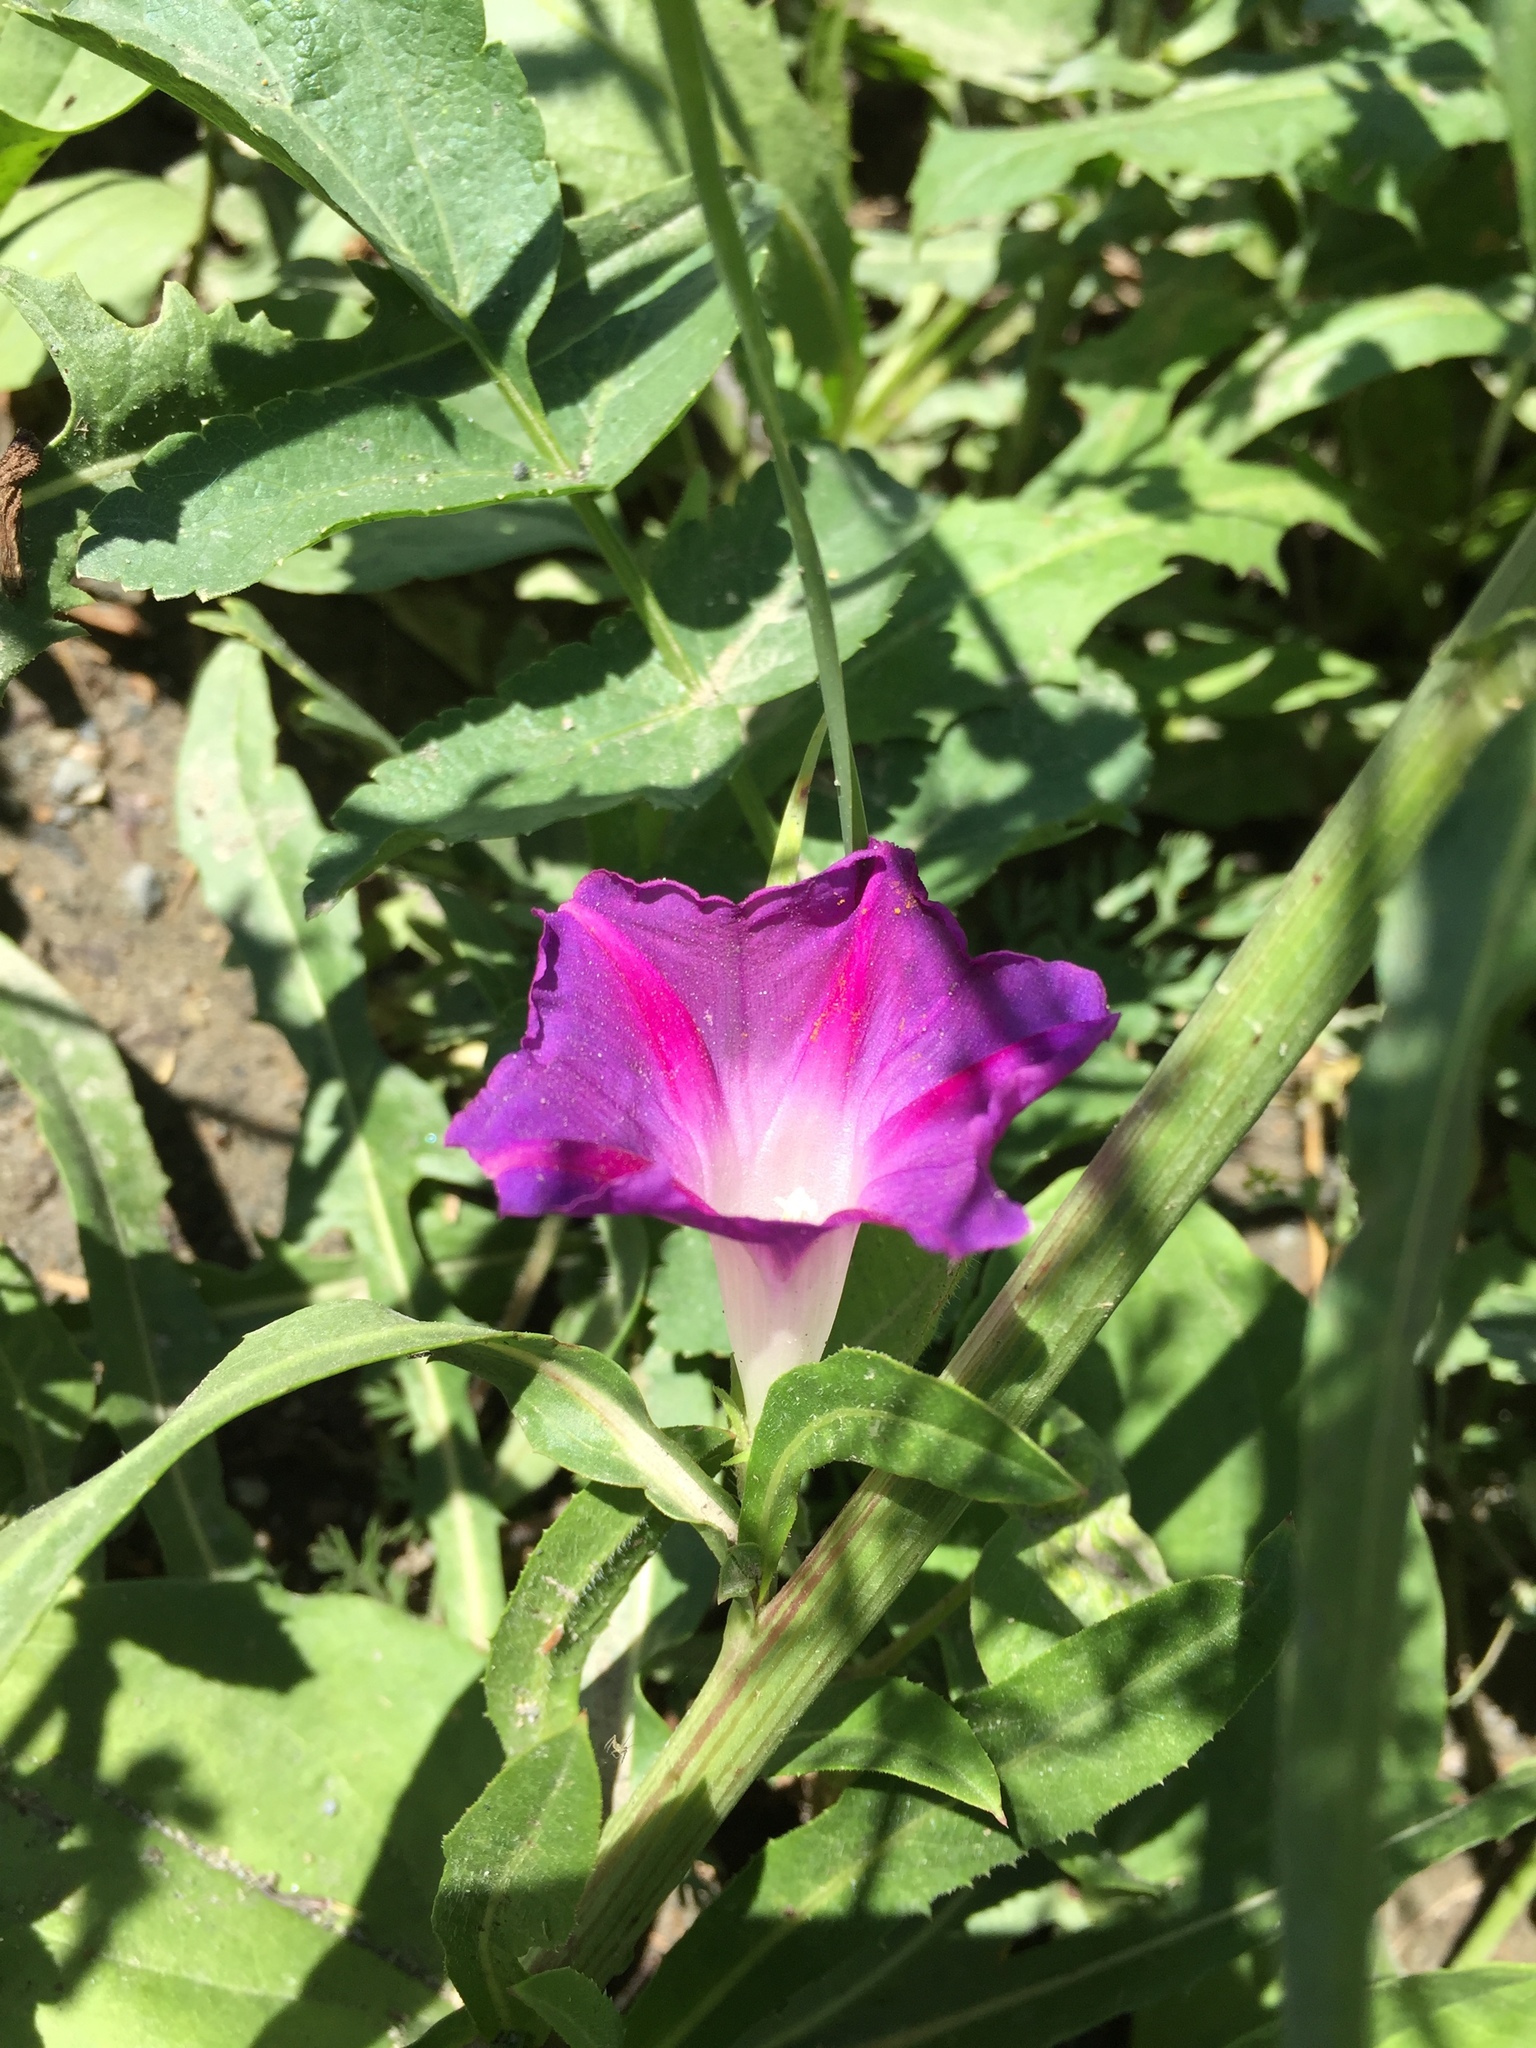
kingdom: Plantae
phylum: Tracheophyta
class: Magnoliopsida
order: Solanales
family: Convolvulaceae
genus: Ipomoea
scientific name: Ipomoea purpurea
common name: Common morning-glory
